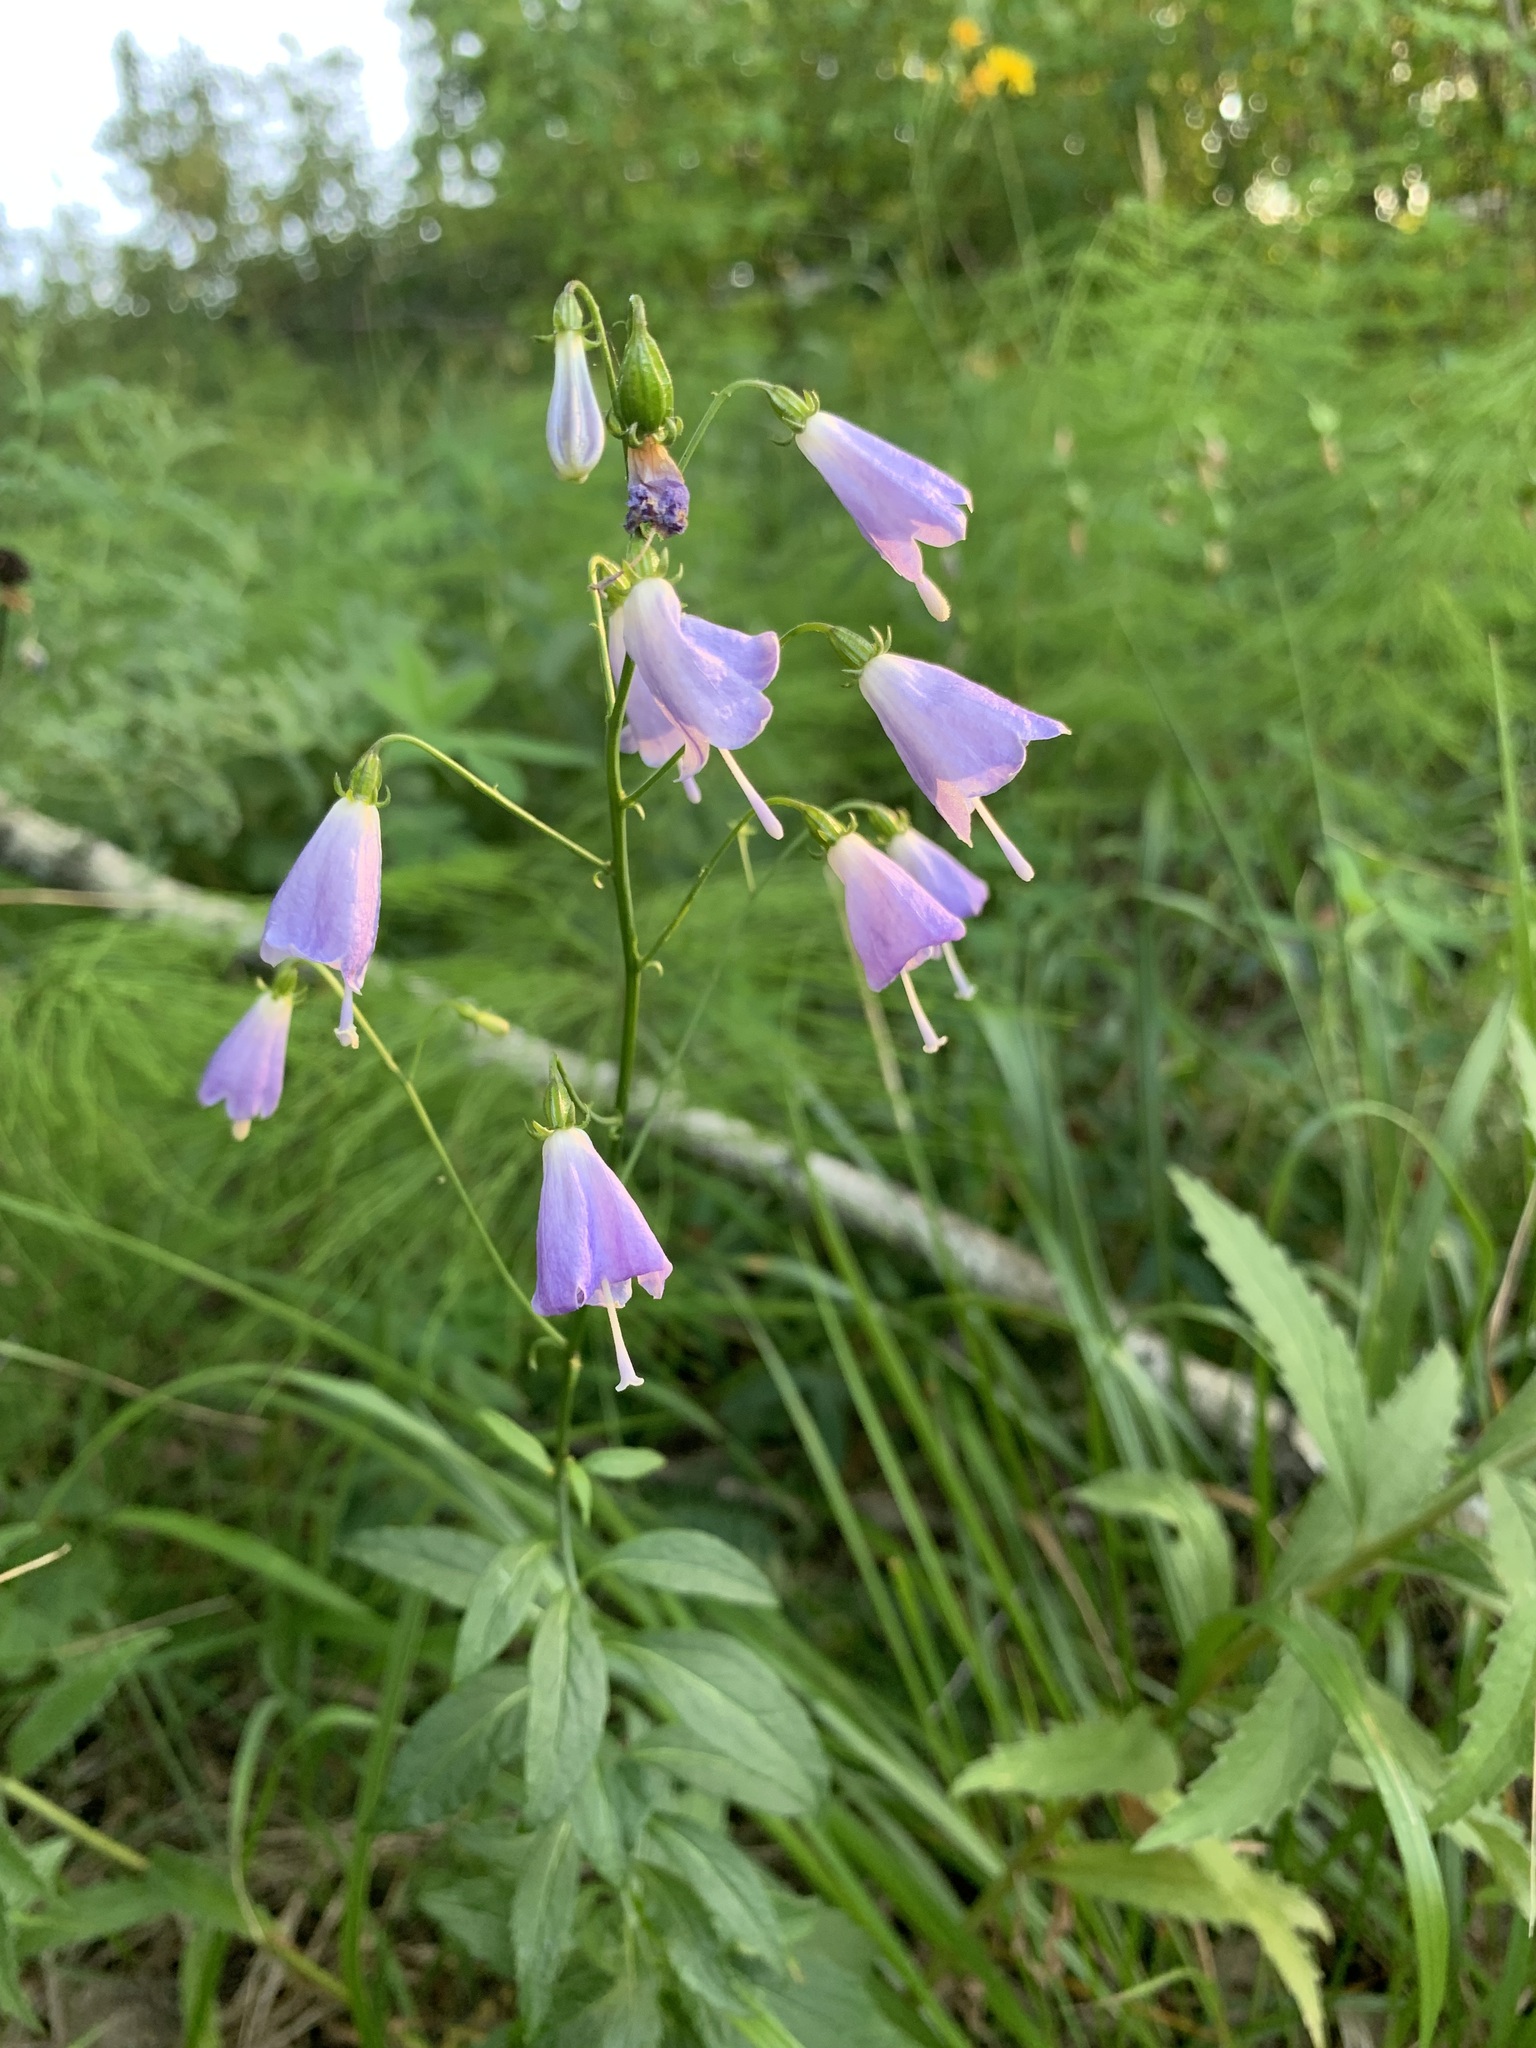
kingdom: Plantae
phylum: Tracheophyta
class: Magnoliopsida
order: Asterales
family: Campanulaceae
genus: Adenophora
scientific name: Adenophora liliifolia
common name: Lilyleaf ladybells
